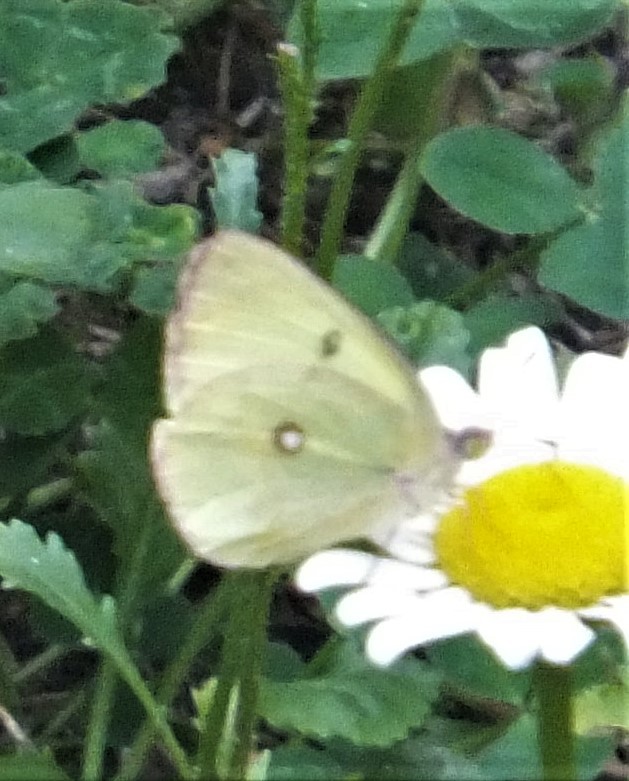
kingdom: Animalia
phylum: Arthropoda
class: Insecta
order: Lepidoptera
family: Pieridae
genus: Colias
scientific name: Colias interior
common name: Pink-edged sulphur
